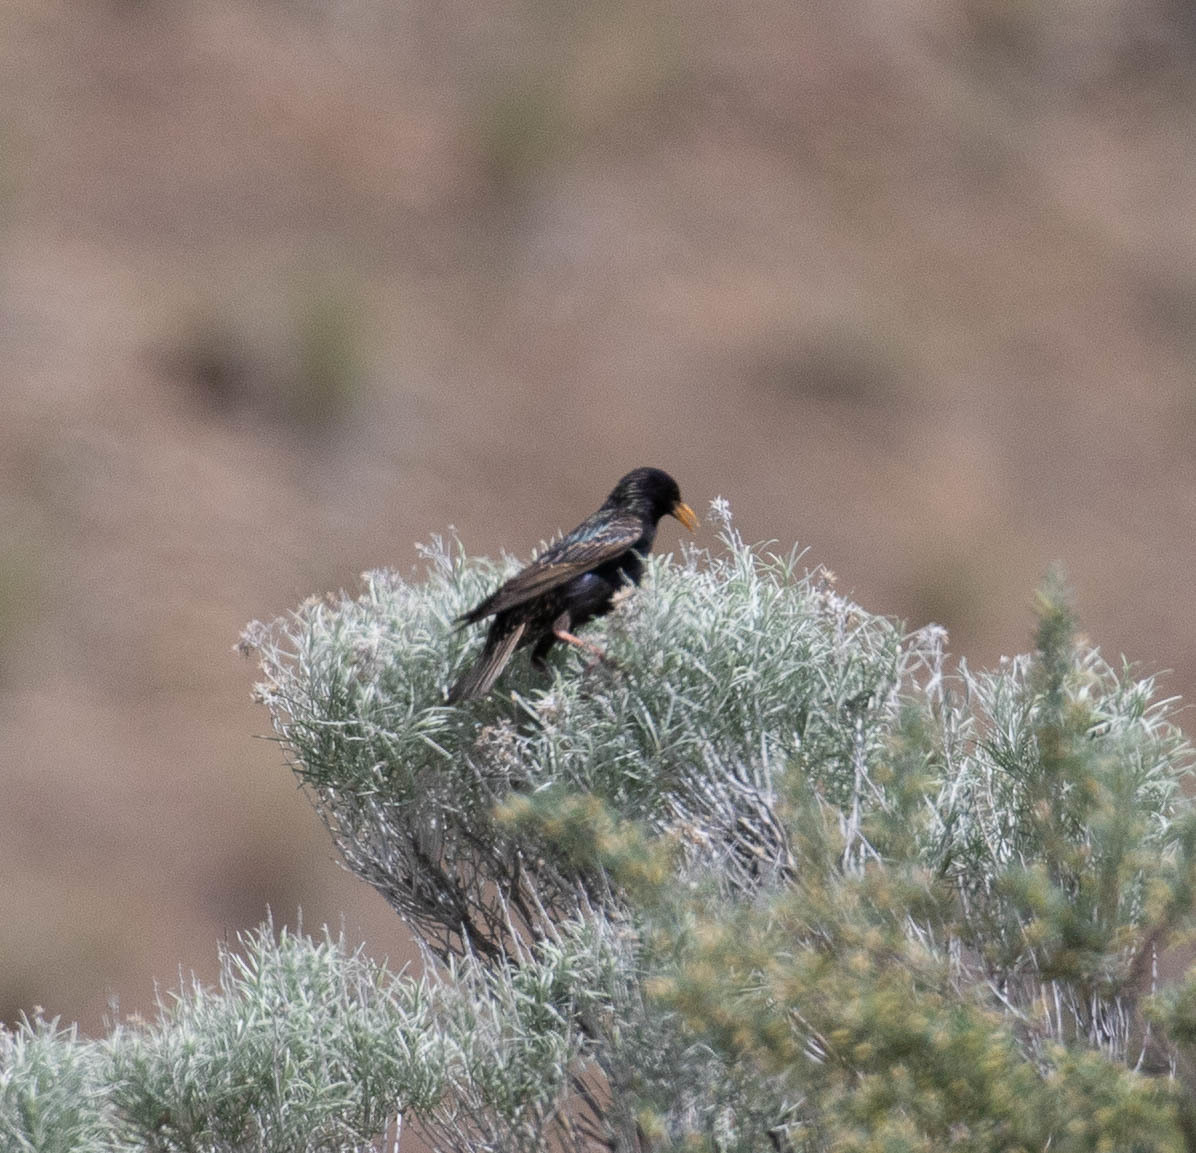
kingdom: Animalia
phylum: Chordata
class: Aves
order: Passeriformes
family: Sturnidae
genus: Sturnus
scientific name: Sturnus vulgaris
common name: Common starling
